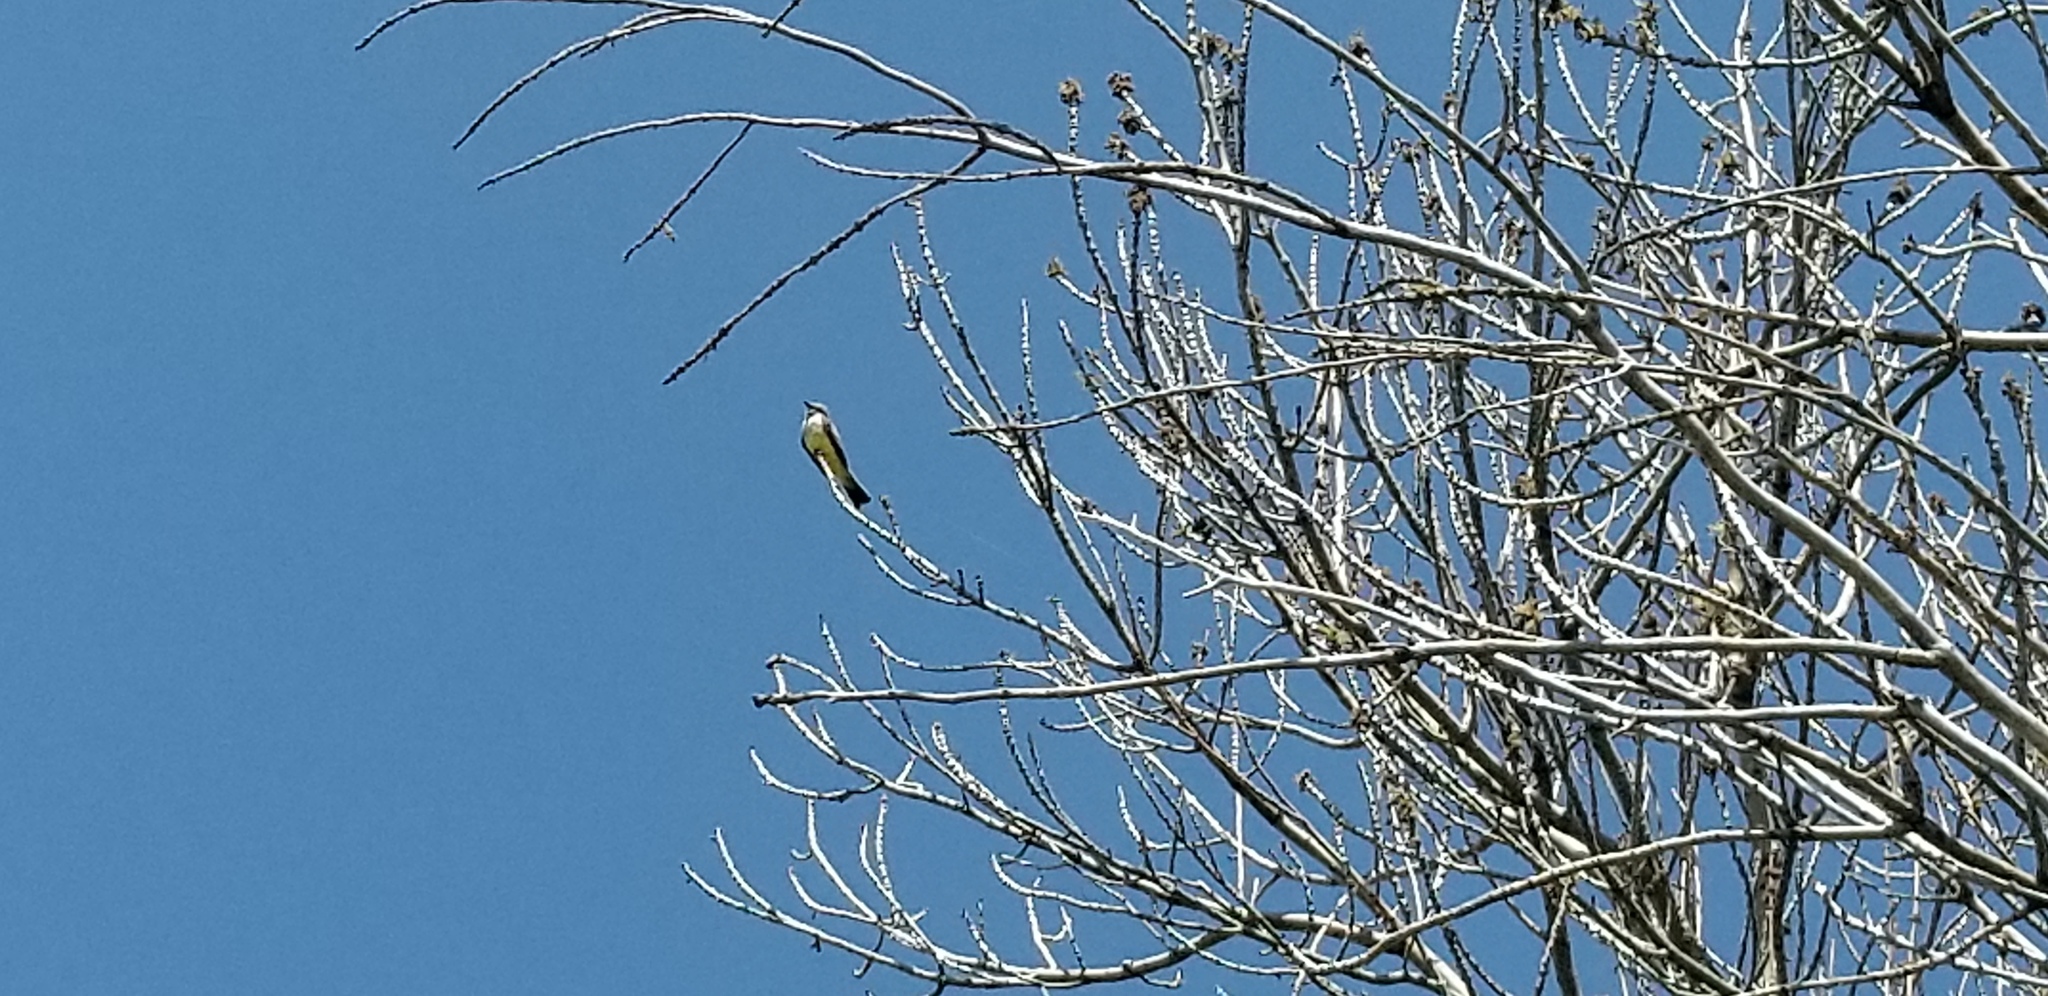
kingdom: Animalia
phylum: Chordata
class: Aves
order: Passeriformes
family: Tyrannidae
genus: Tyrannus
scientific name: Tyrannus verticalis
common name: Western kingbird
